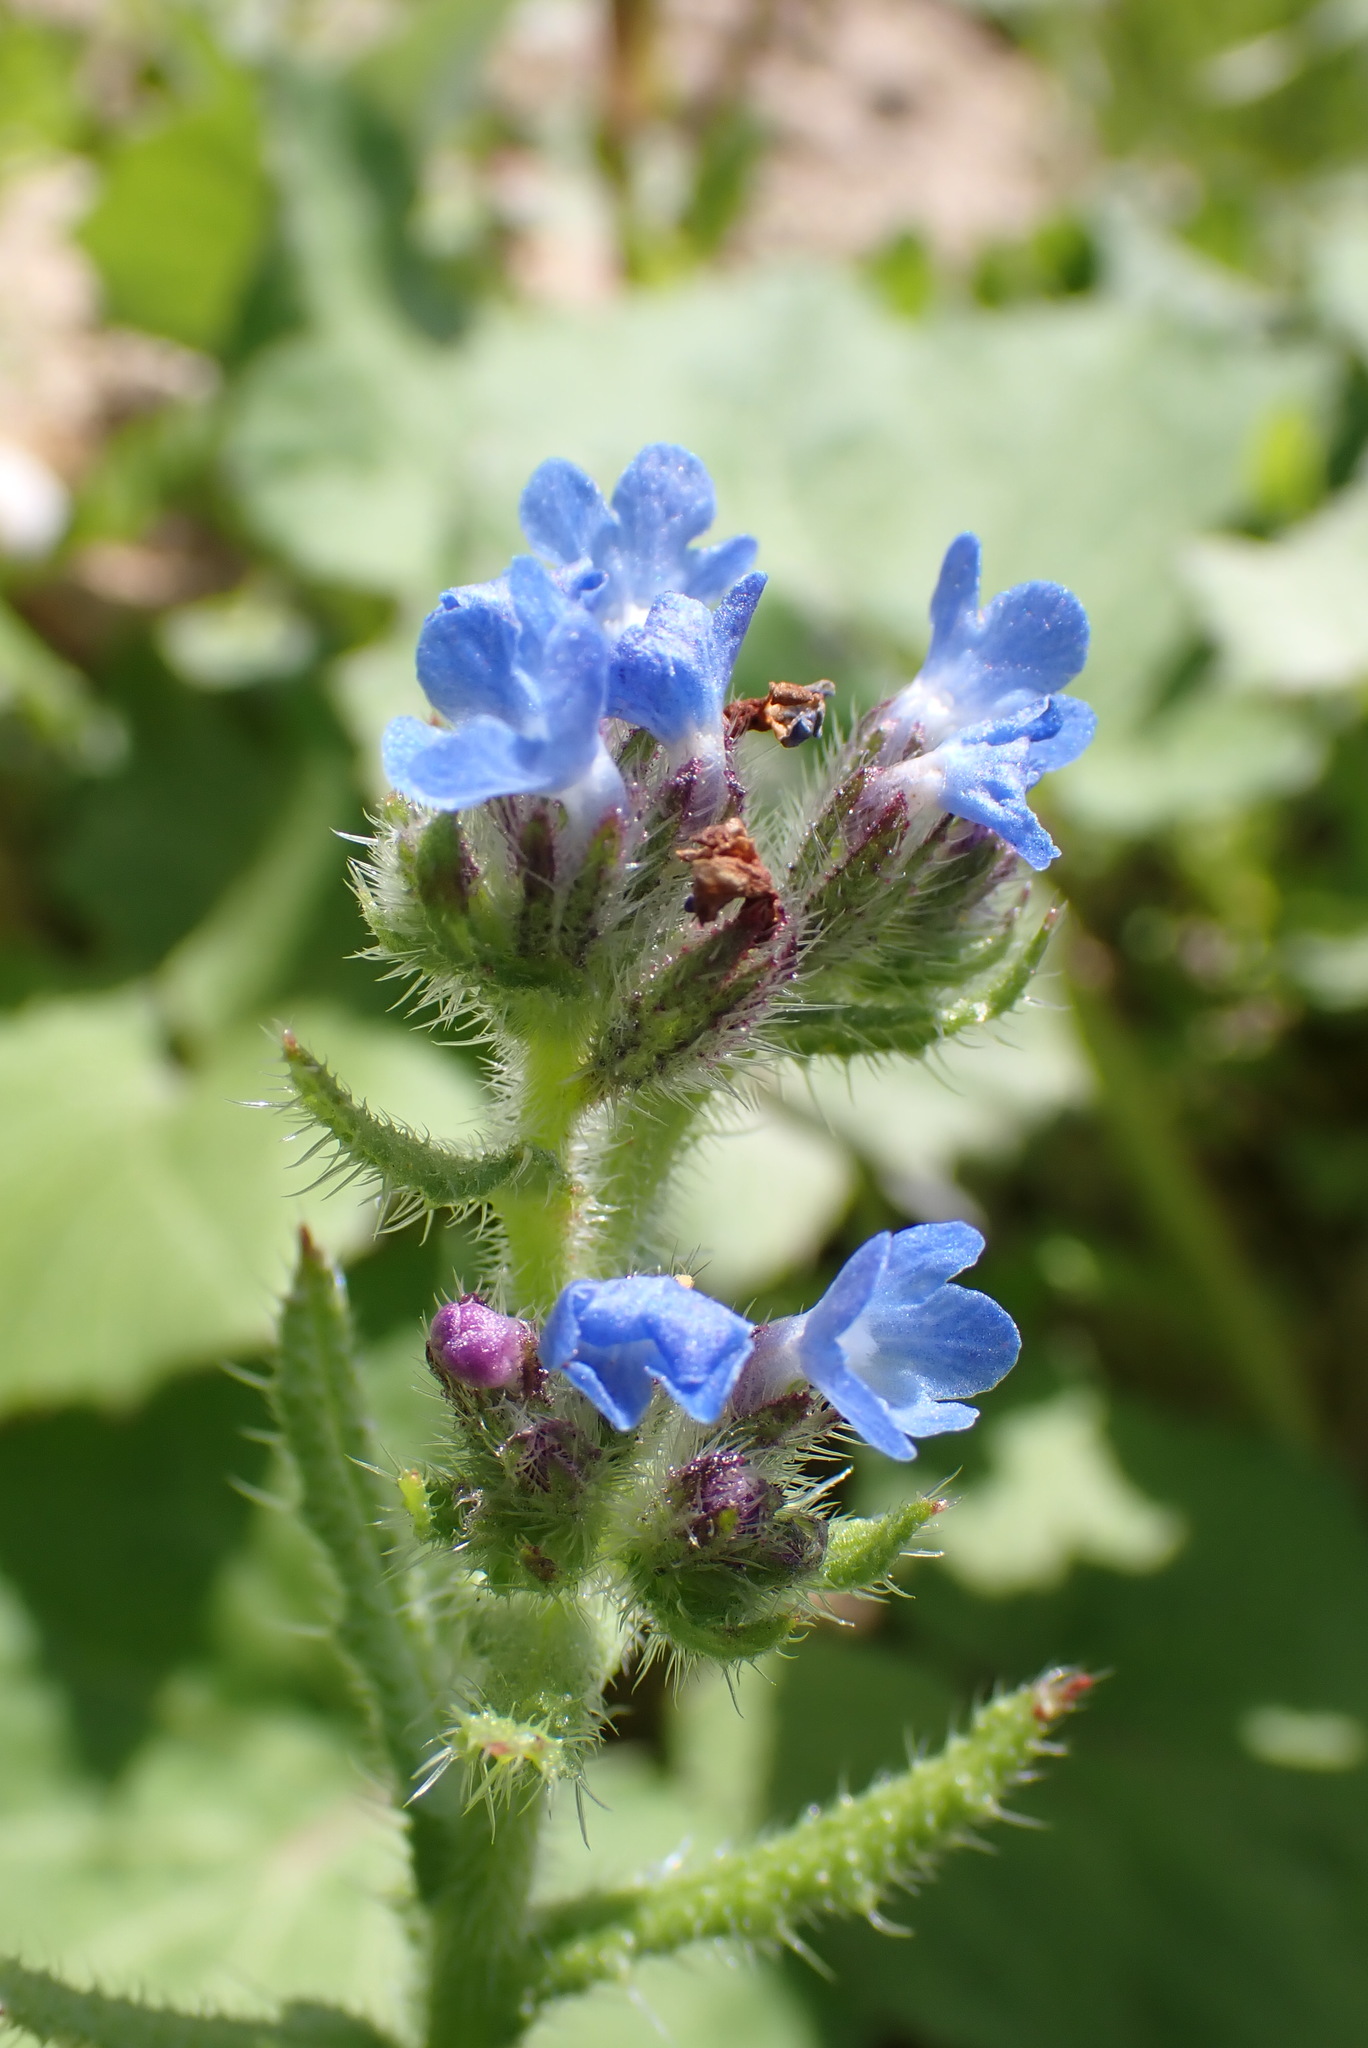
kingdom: Plantae
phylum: Tracheophyta
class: Magnoliopsida
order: Boraginales
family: Boraginaceae
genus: Lycopsis
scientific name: Lycopsis arvensis
